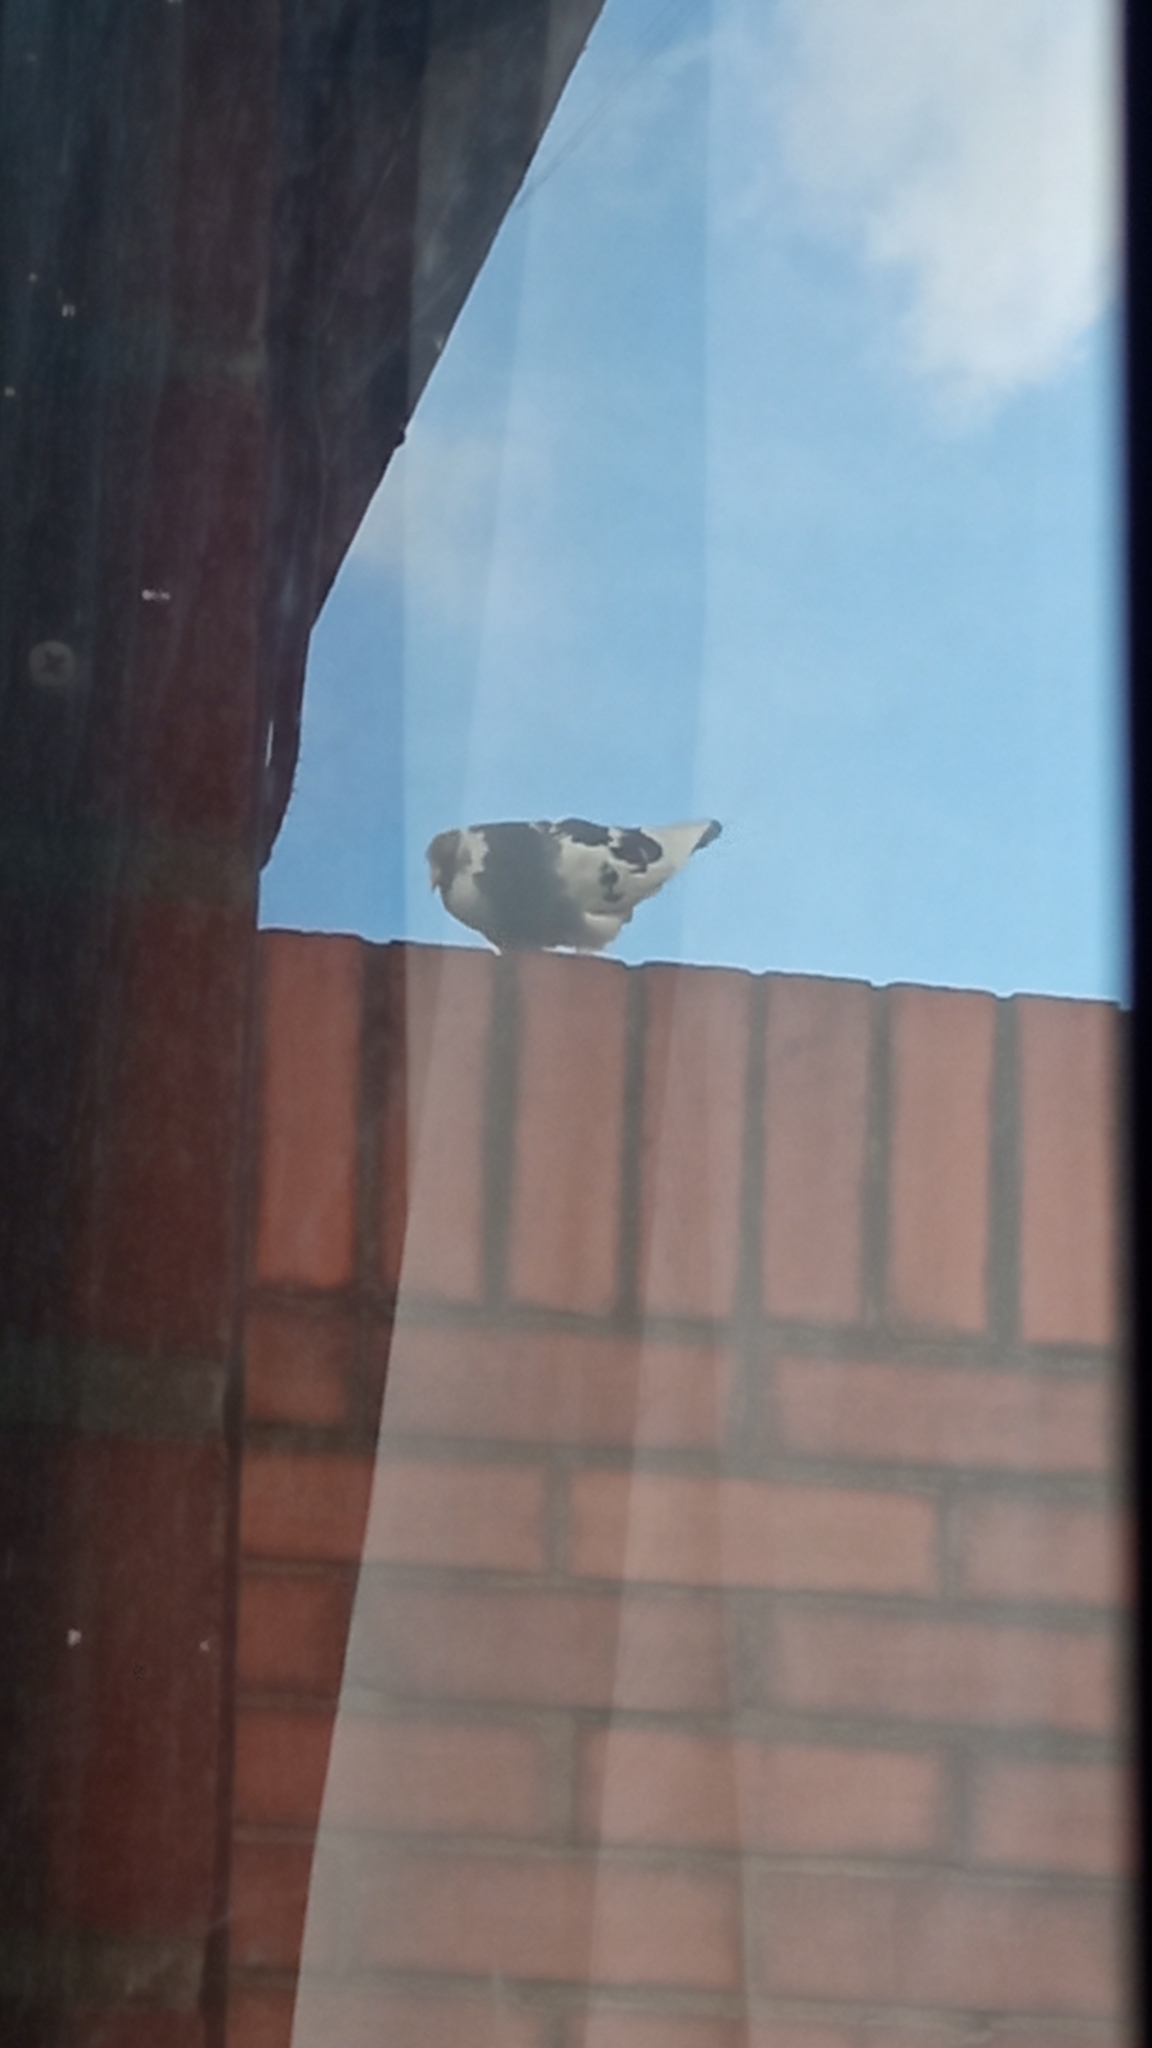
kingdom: Animalia
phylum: Chordata
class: Aves
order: Columbiformes
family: Columbidae
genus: Columba
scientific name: Columba livia
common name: Rock pigeon
